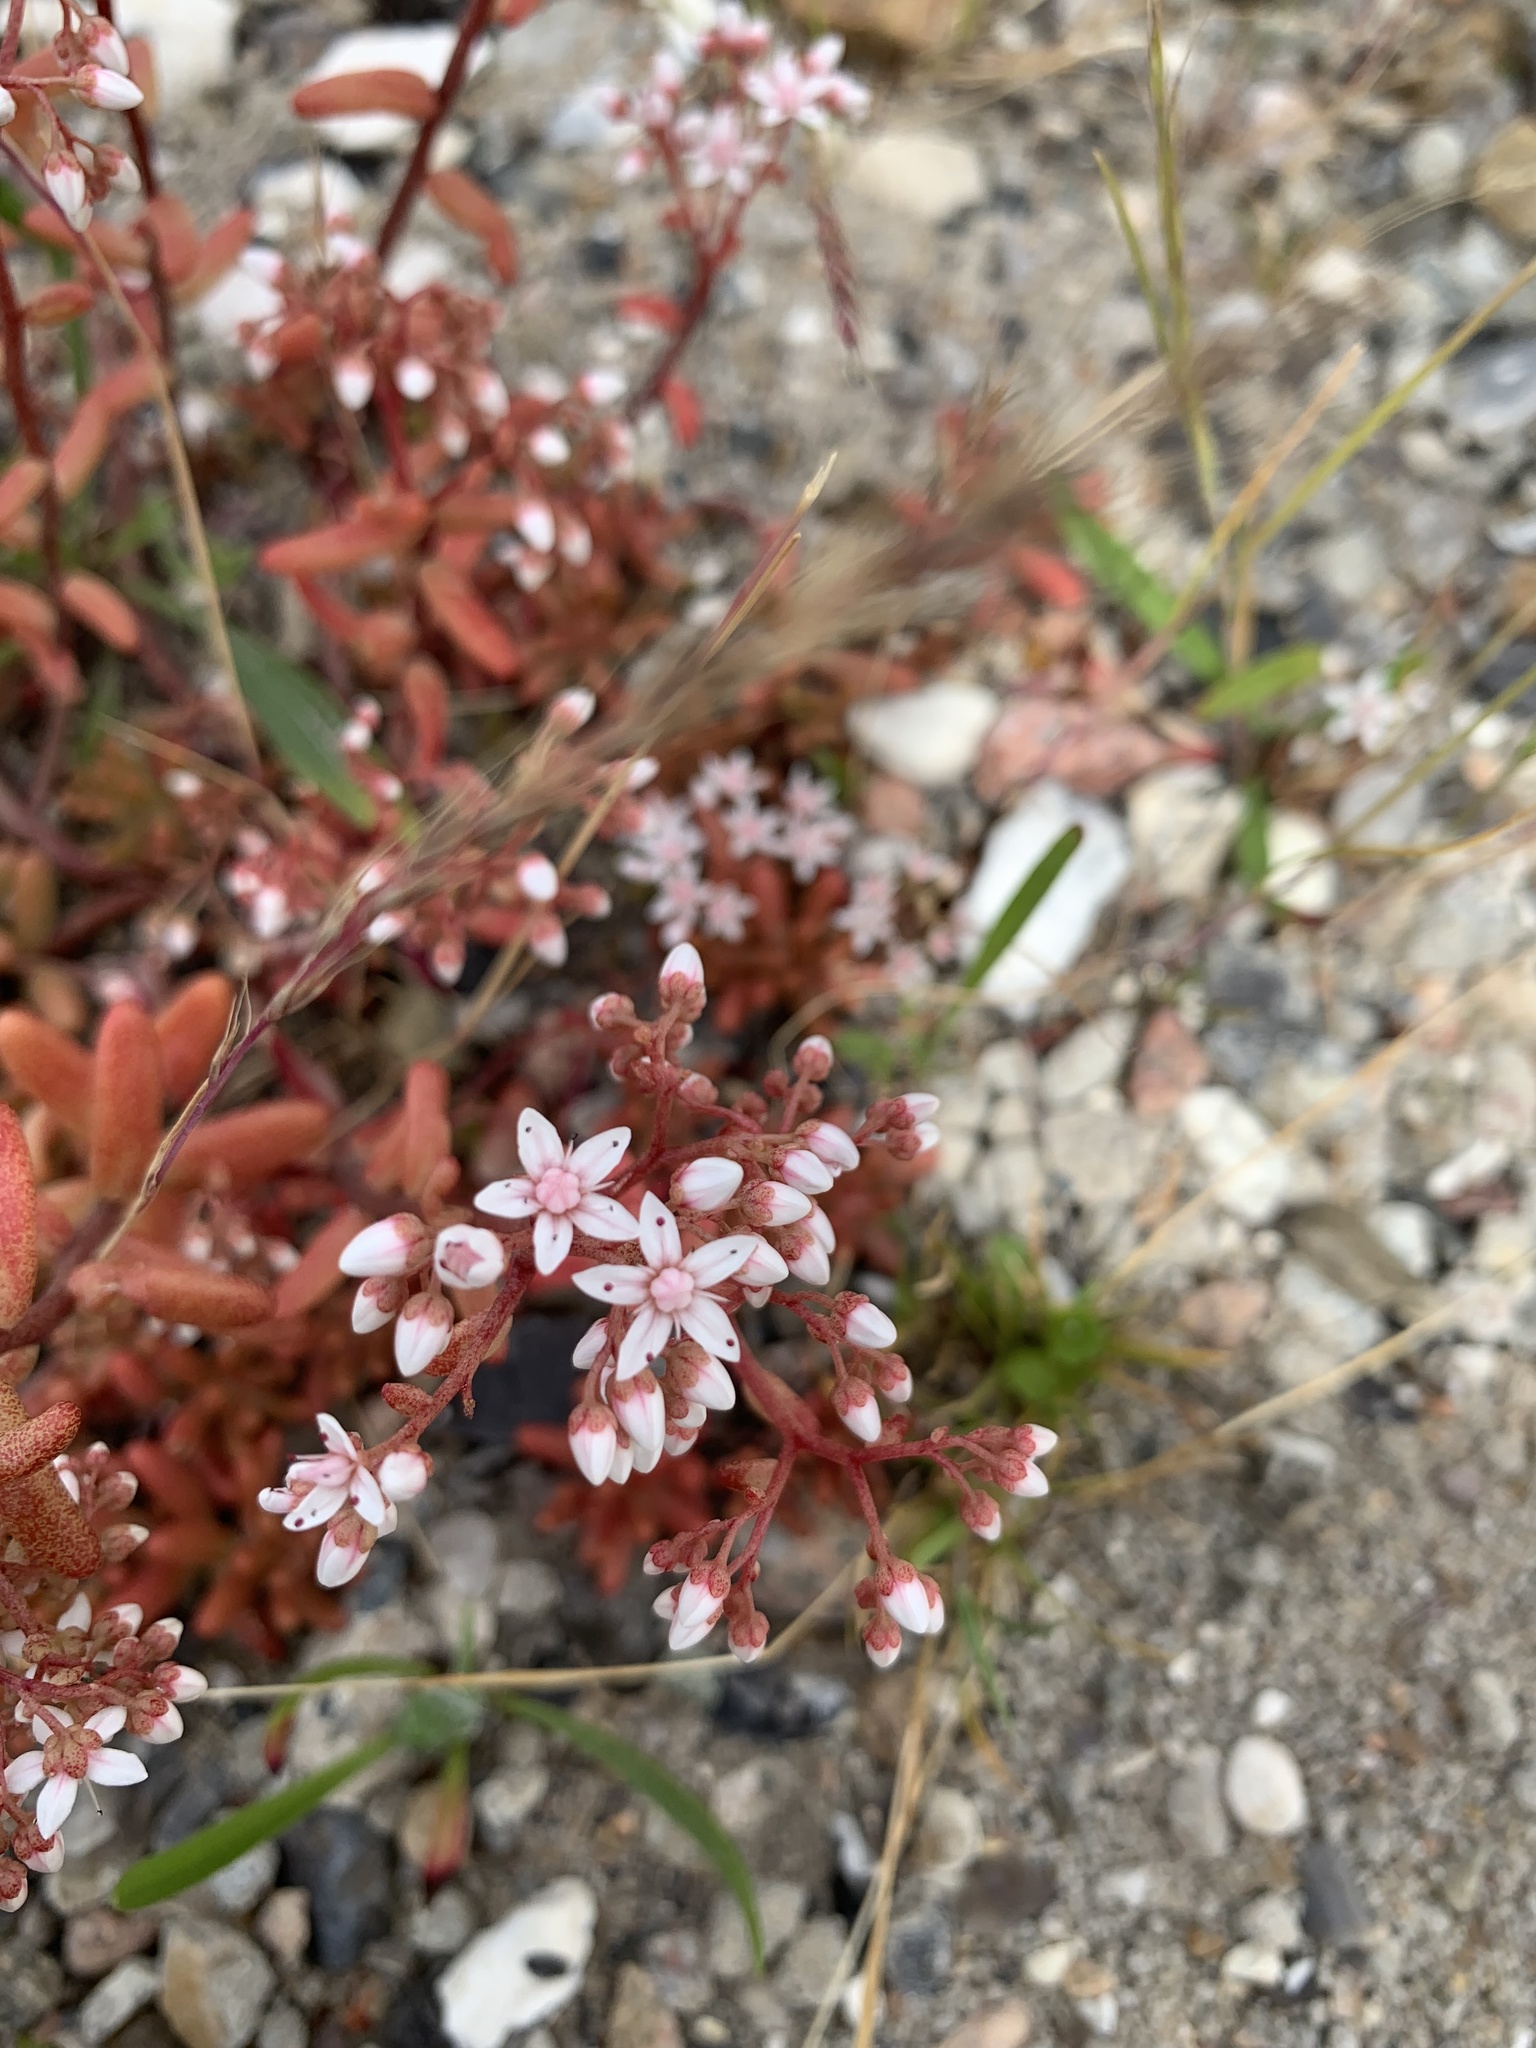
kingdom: Plantae
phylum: Tracheophyta
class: Magnoliopsida
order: Saxifragales
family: Crassulaceae
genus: Sedum
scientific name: Sedum album
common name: White stonecrop
